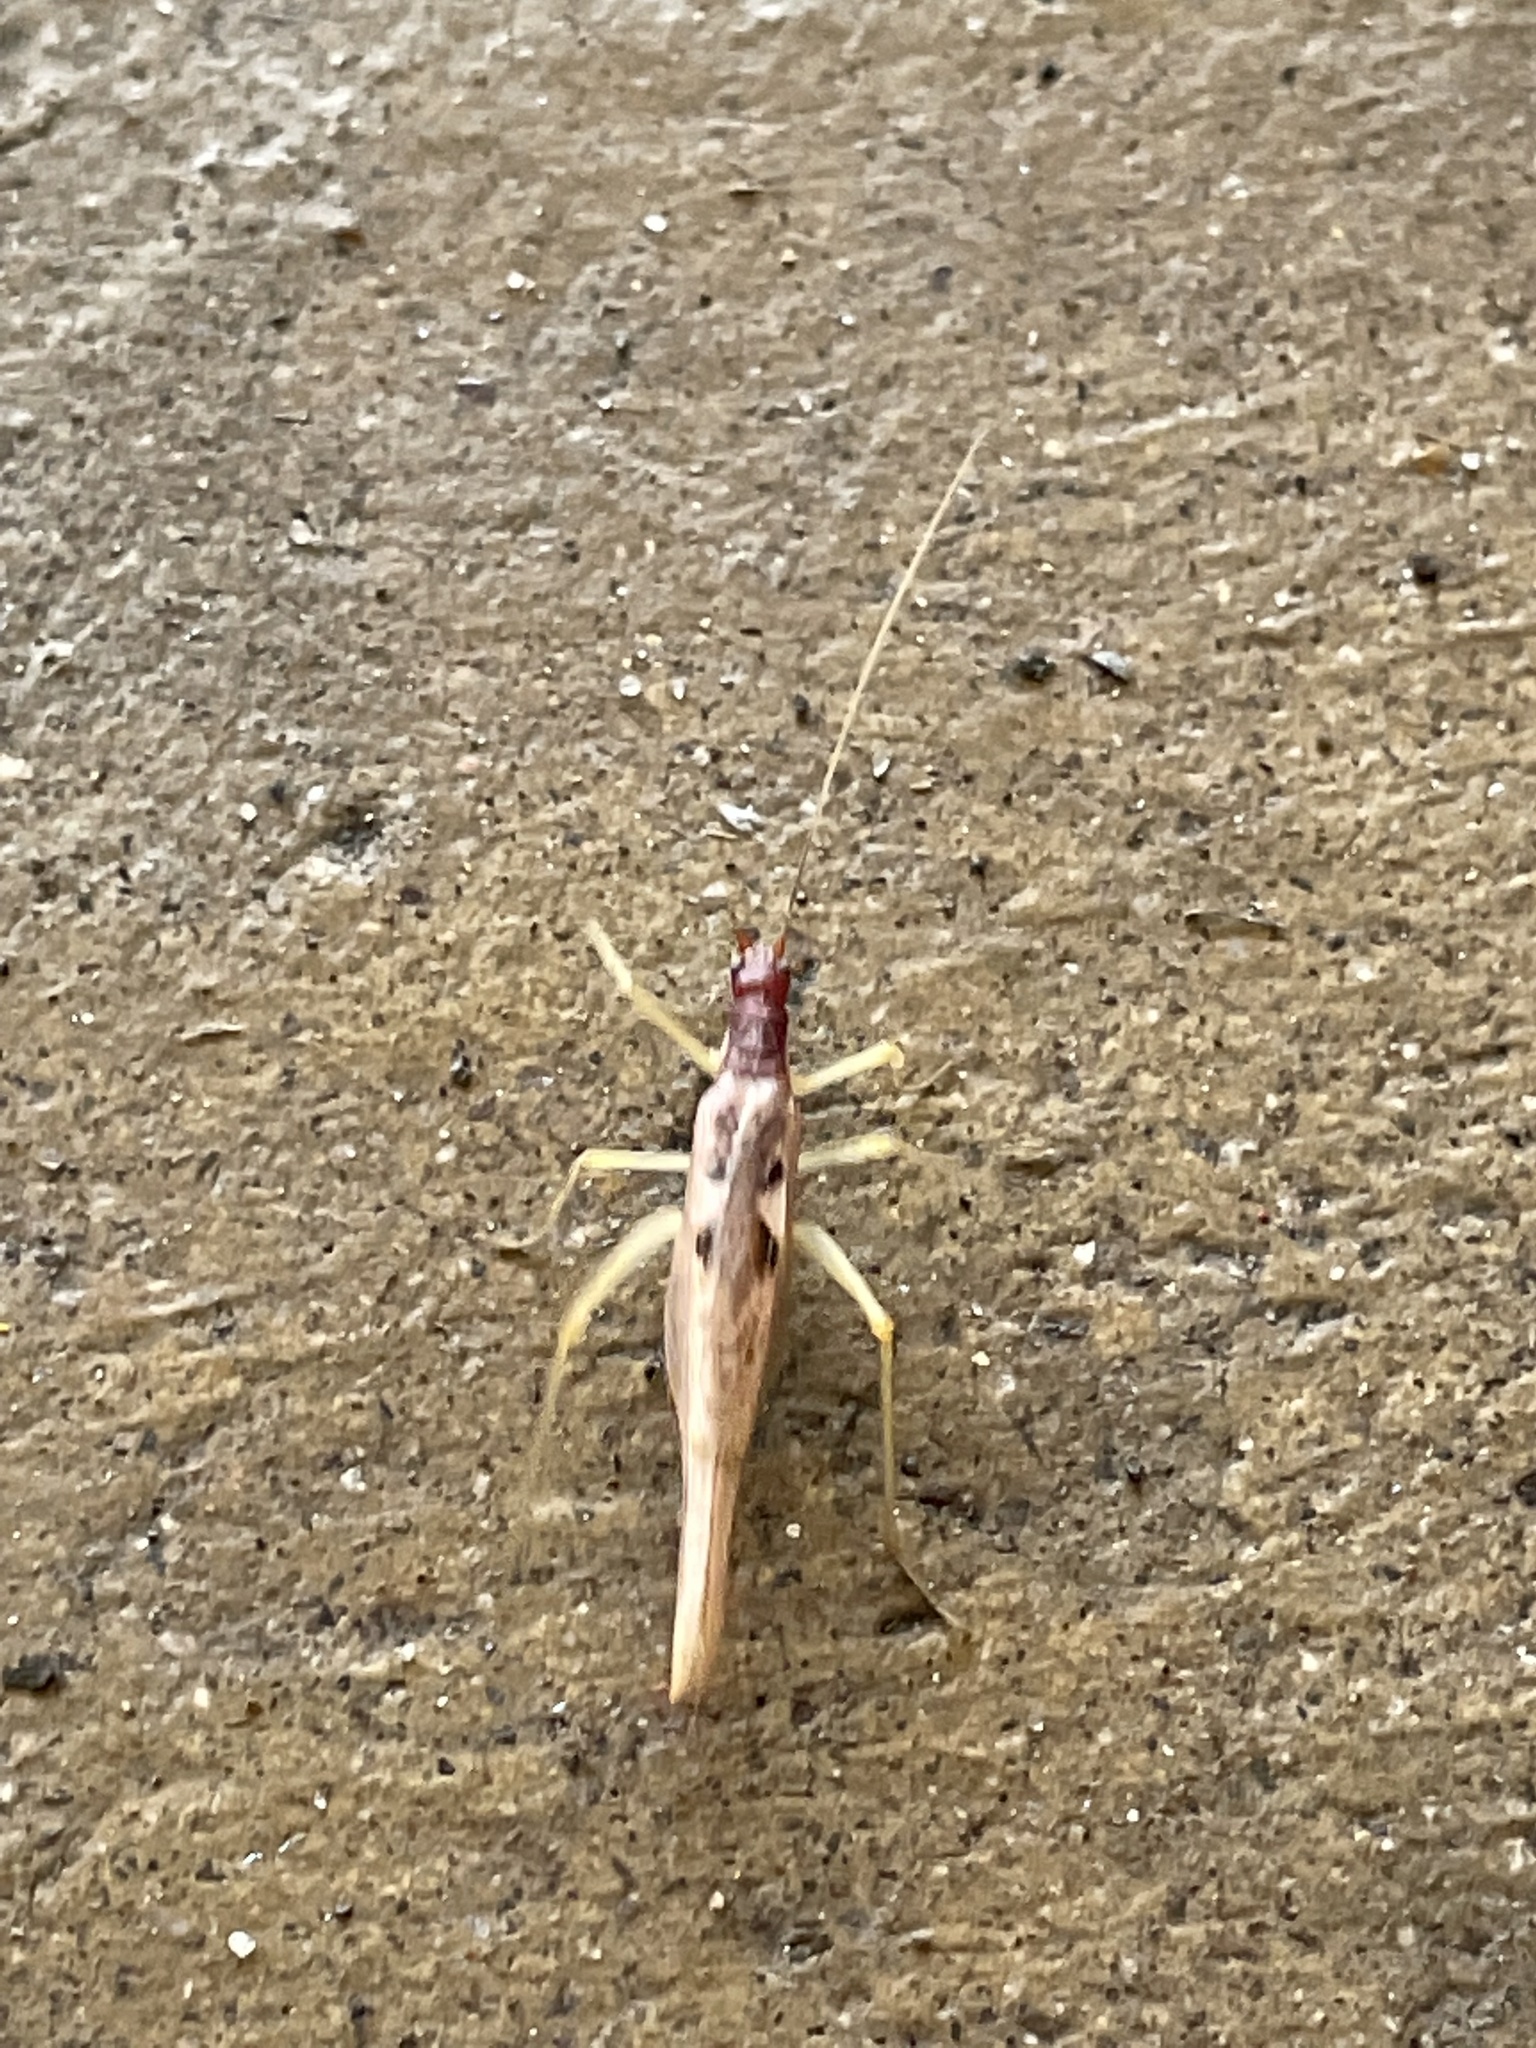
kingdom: Animalia
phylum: Arthropoda
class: Insecta
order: Orthoptera
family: Gryllidae
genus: Neoxabea
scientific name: Neoxabea bipunctata
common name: Two-spotted tree cricket
